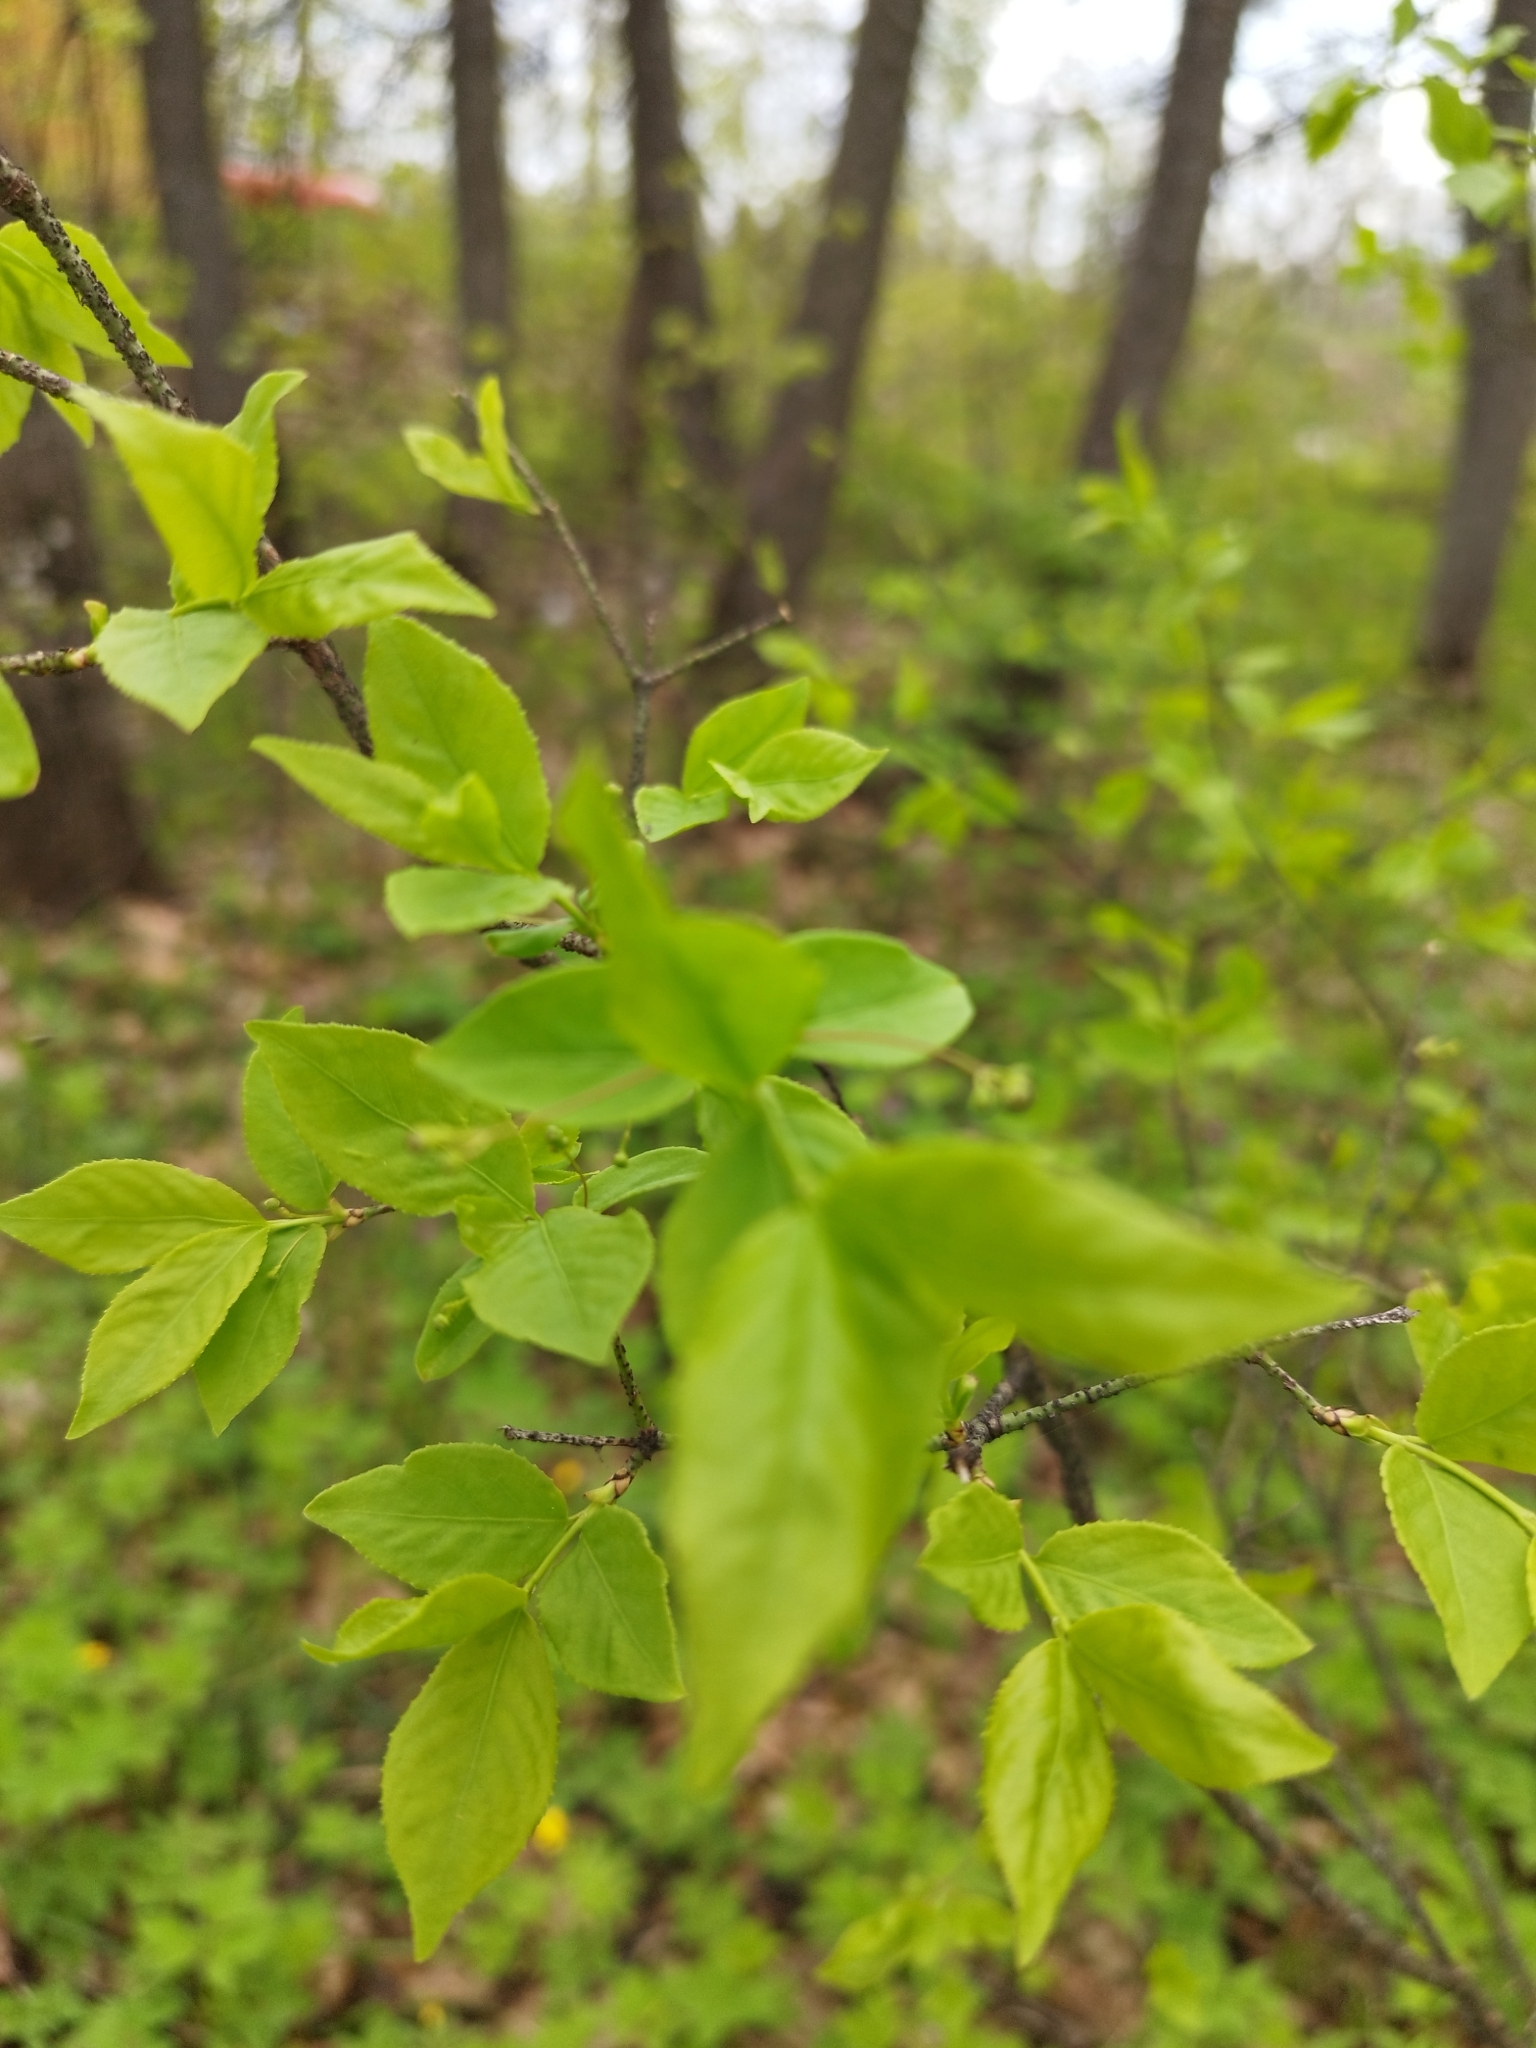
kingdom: Plantae
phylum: Tracheophyta
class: Magnoliopsida
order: Celastrales
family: Celastraceae
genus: Euonymus
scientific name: Euonymus verrucosus
